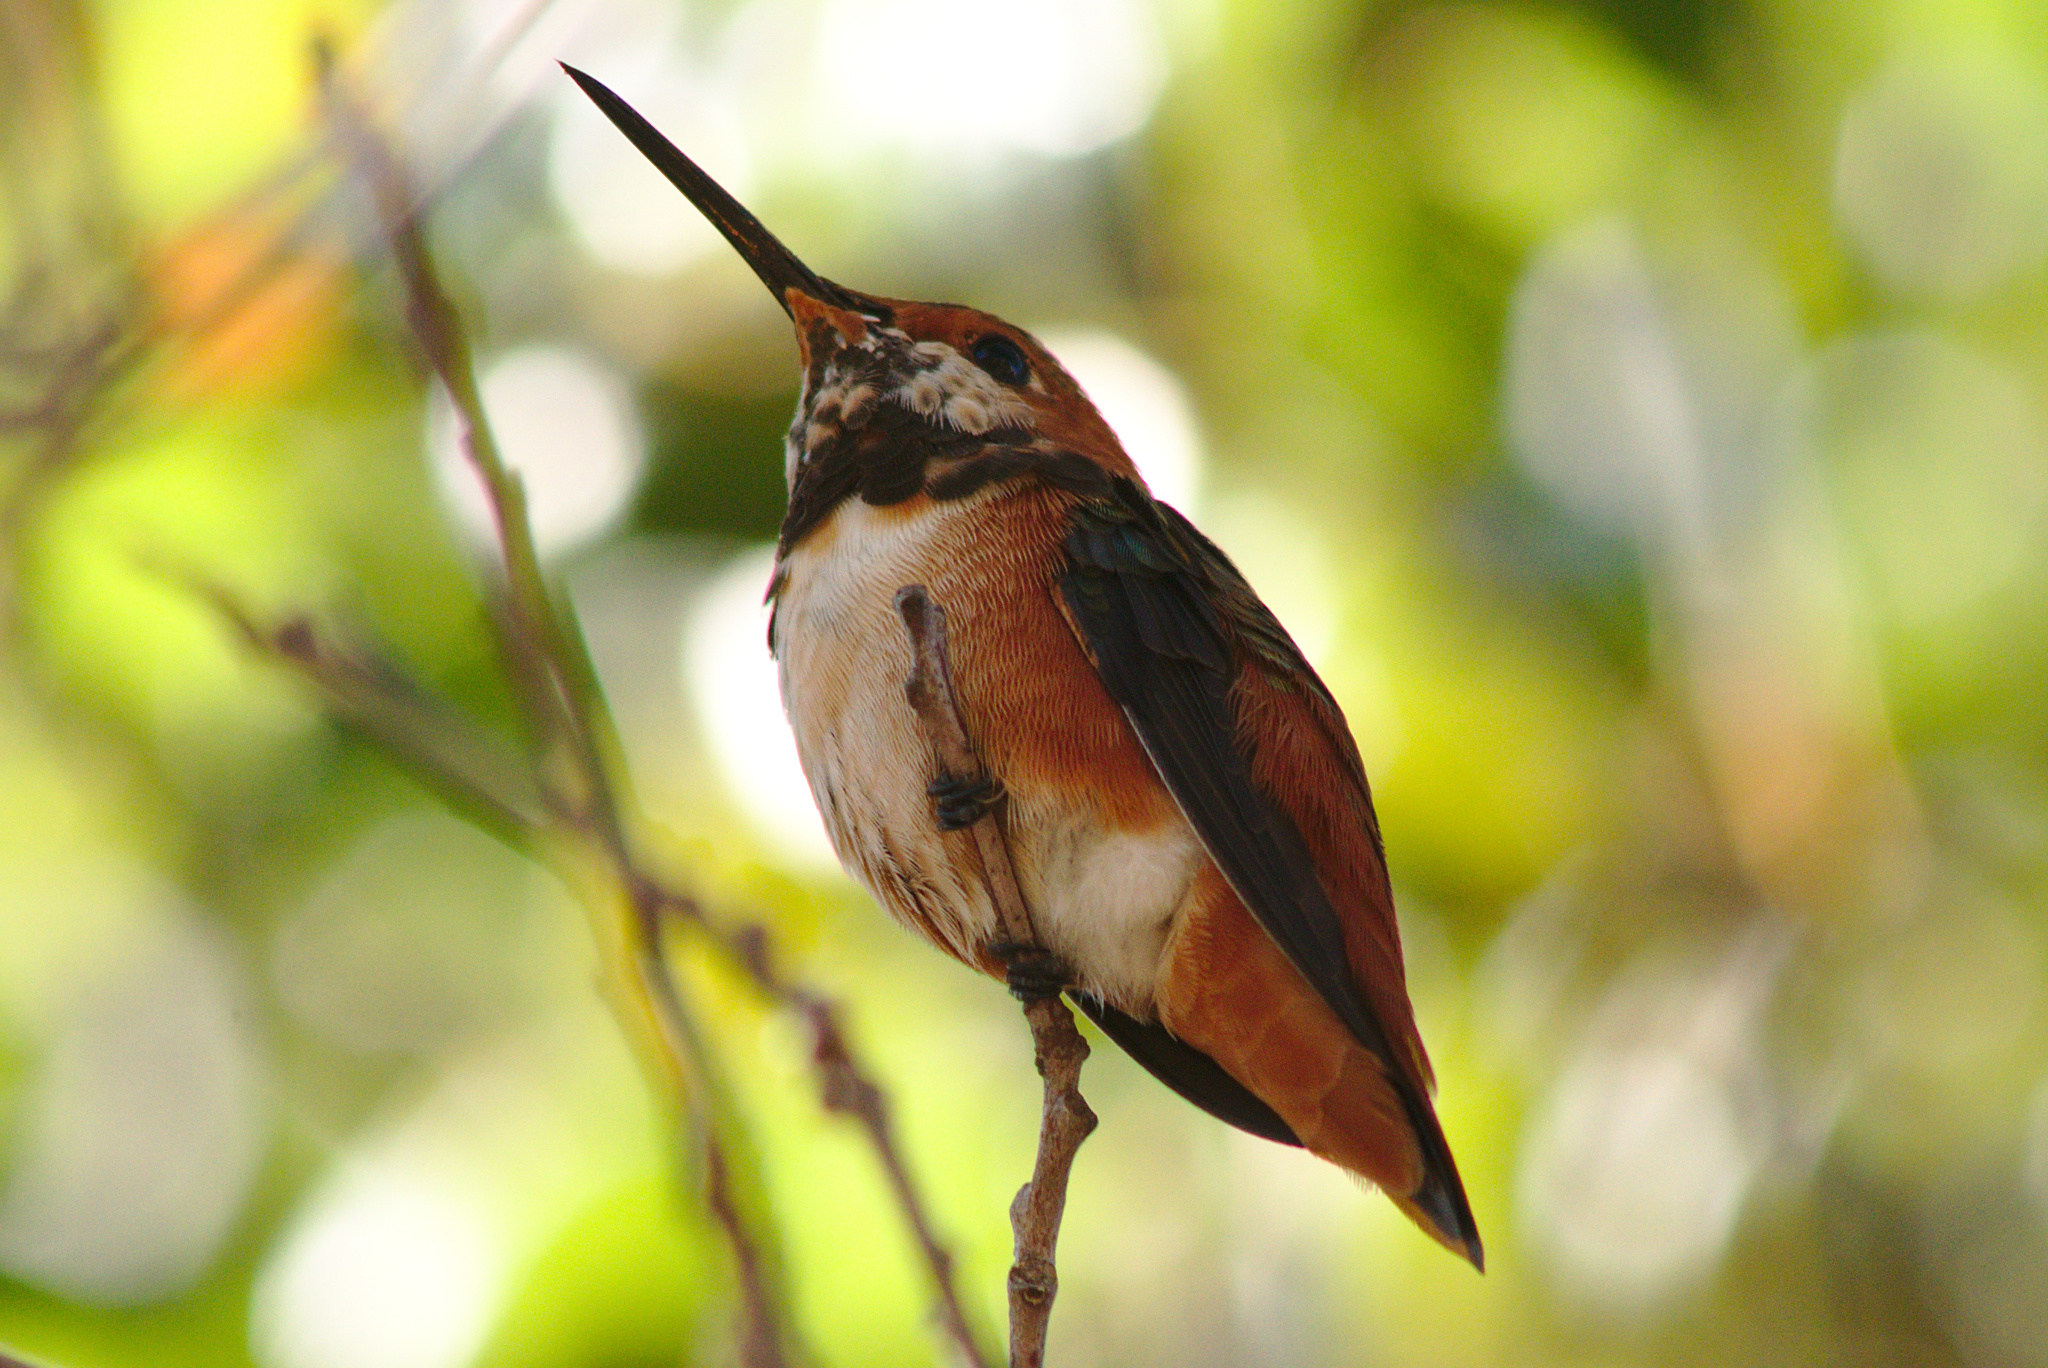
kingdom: Animalia
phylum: Chordata
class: Aves
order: Apodiformes
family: Trochilidae
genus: Selasphorus
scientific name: Selasphorus sasin
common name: Allen's hummingbird
